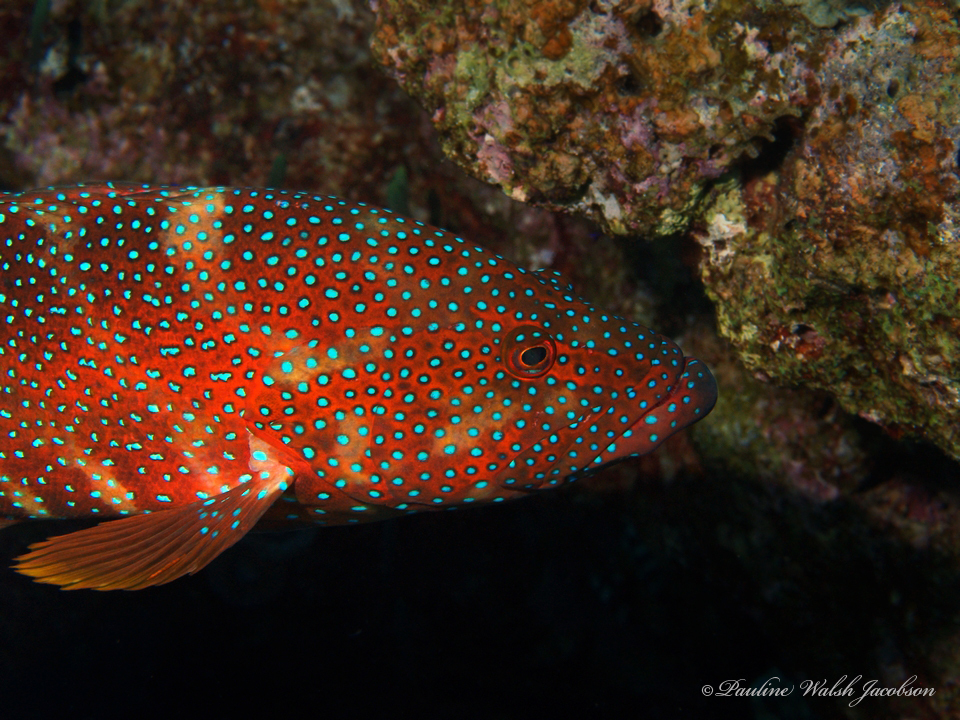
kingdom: Animalia
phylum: Chordata
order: Perciformes
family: Serranidae
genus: Cephalopholis
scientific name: Cephalopholis miniata
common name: Coral hind
